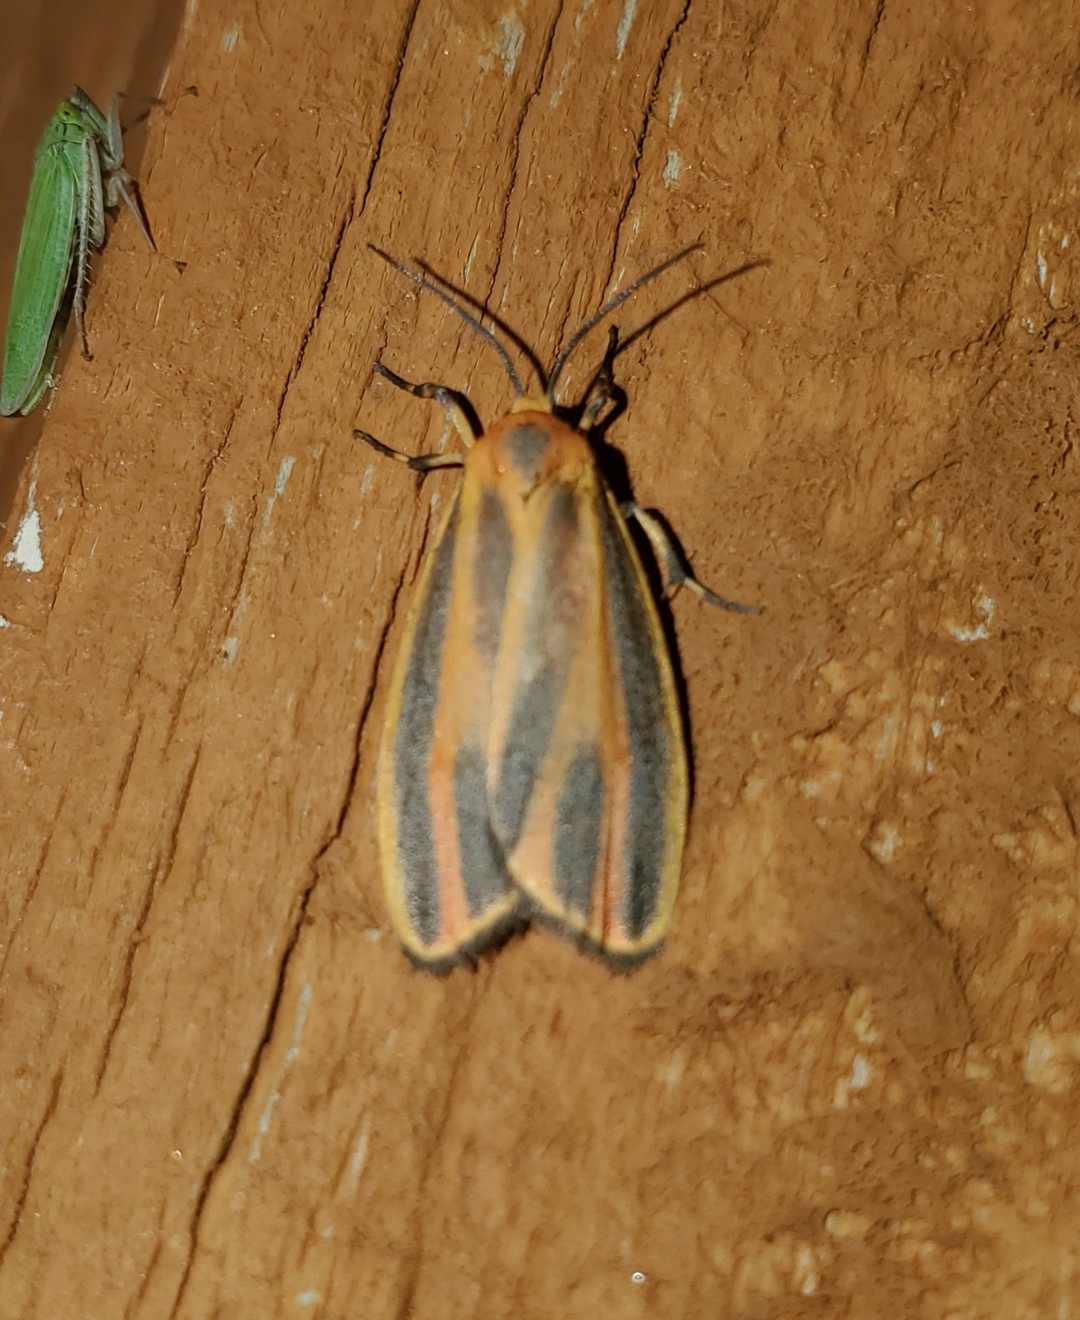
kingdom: Animalia
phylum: Arthropoda
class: Insecta
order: Lepidoptera
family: Erebidae
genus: Hypoprepia
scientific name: Hypoprepia fucosa
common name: Painted lichen moth
